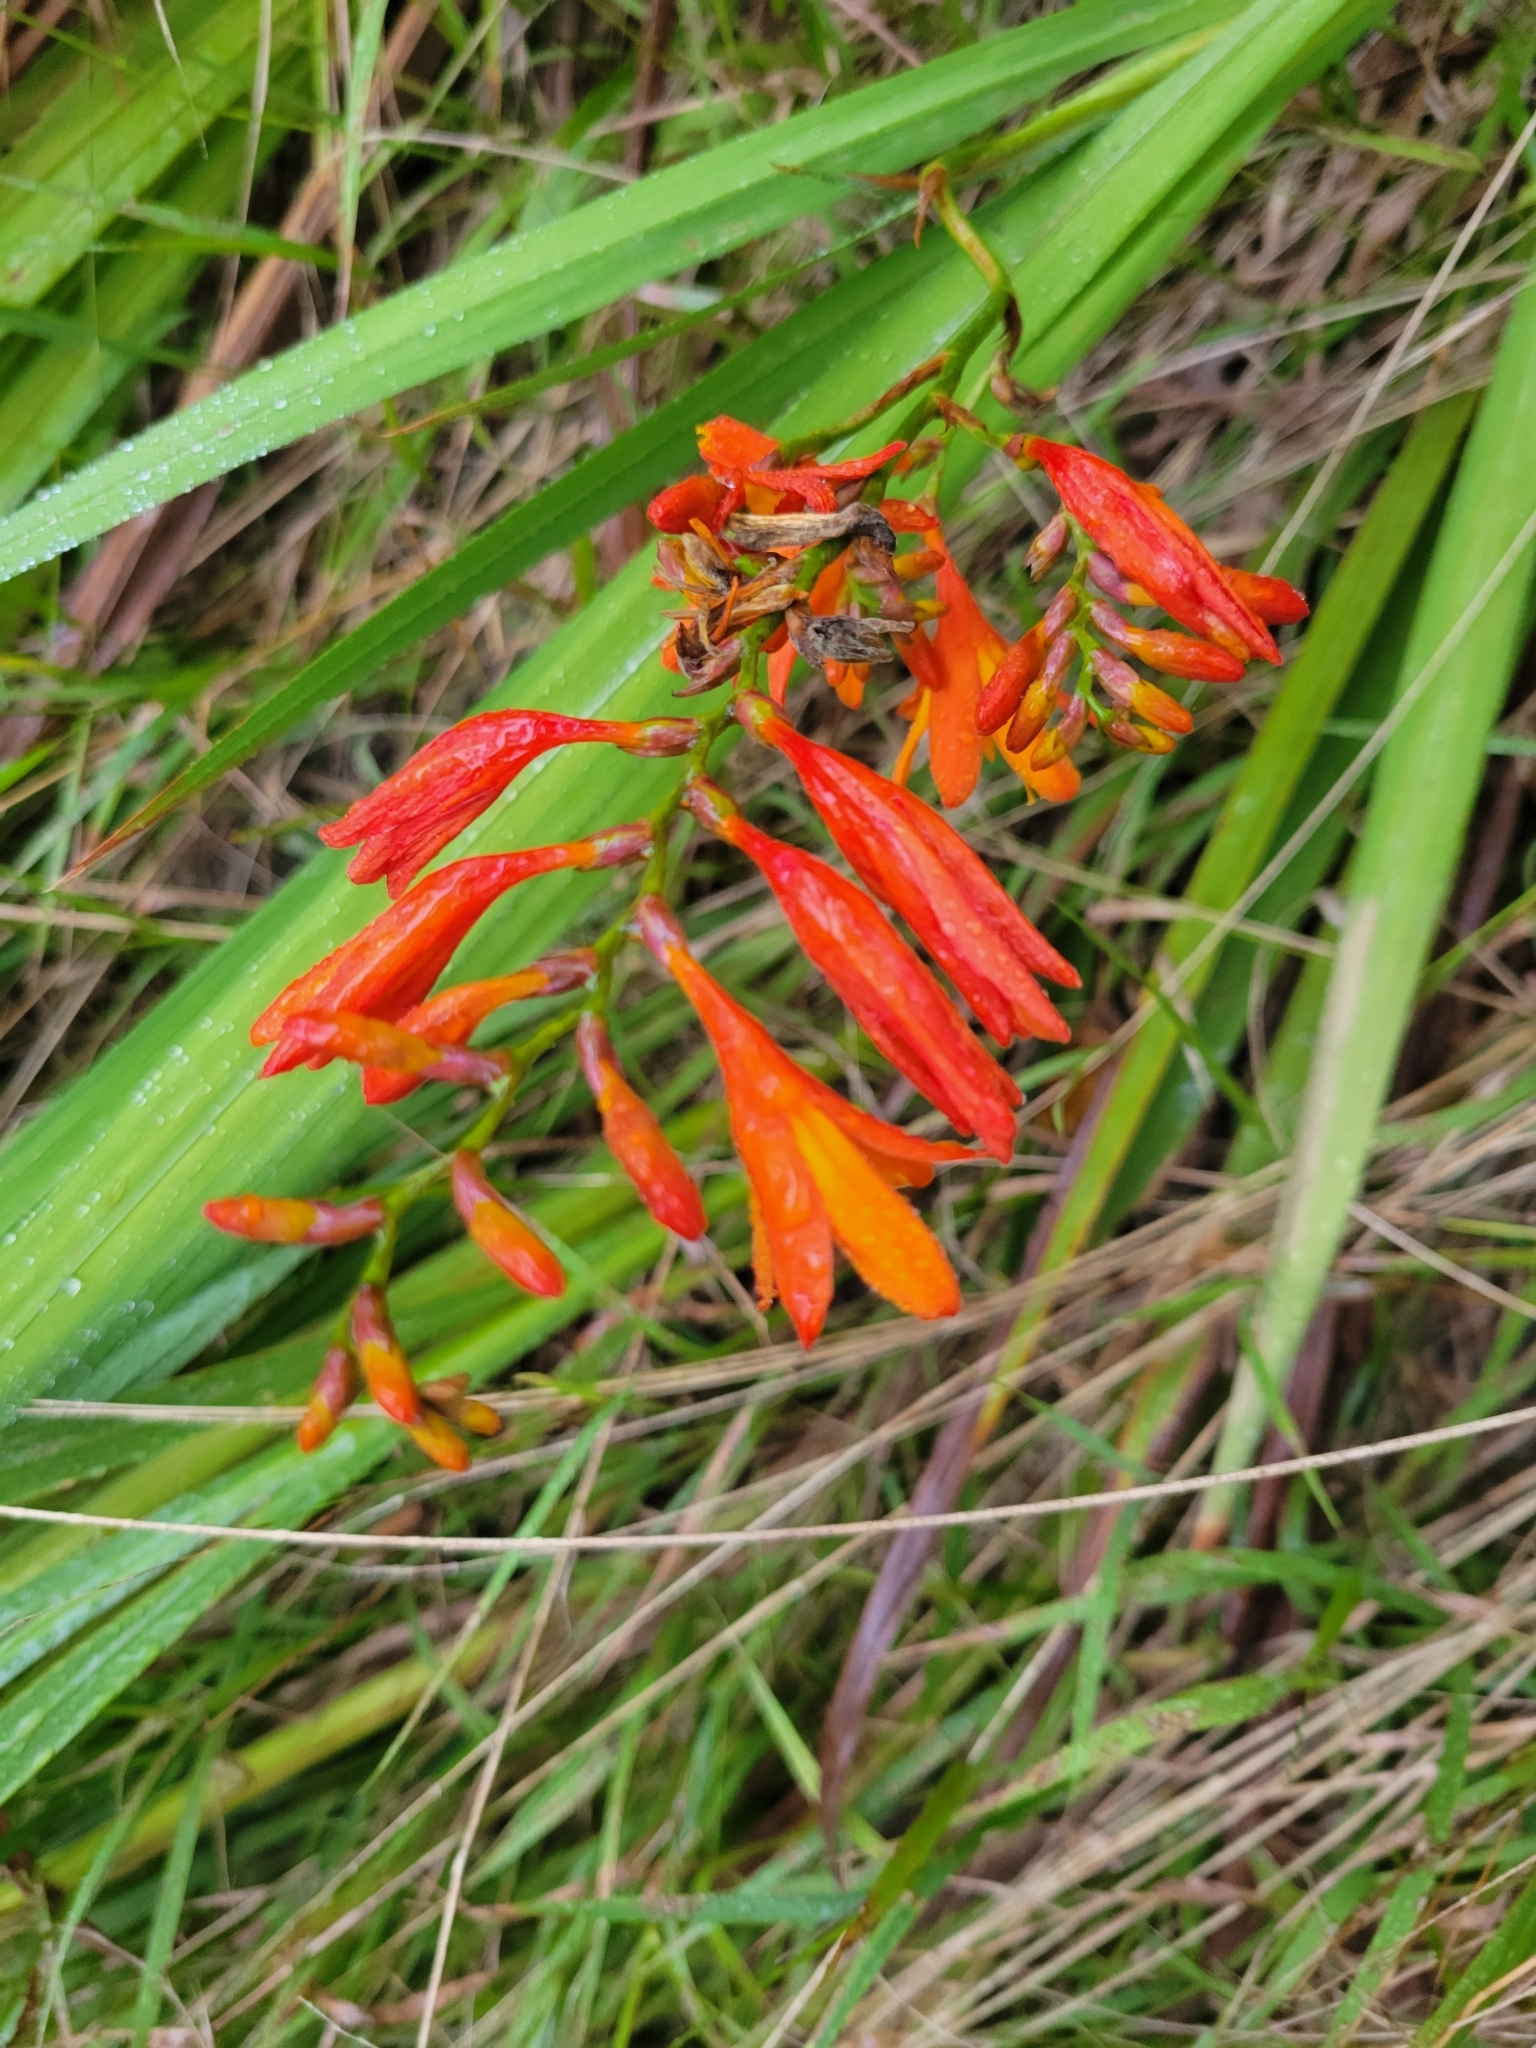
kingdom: Plantae
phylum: Tracheophyta
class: Liliopsida
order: Asparagales
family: Iridaceae
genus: Crocosmia
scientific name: Crocosmia crocosmiiflora
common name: Montbretia
